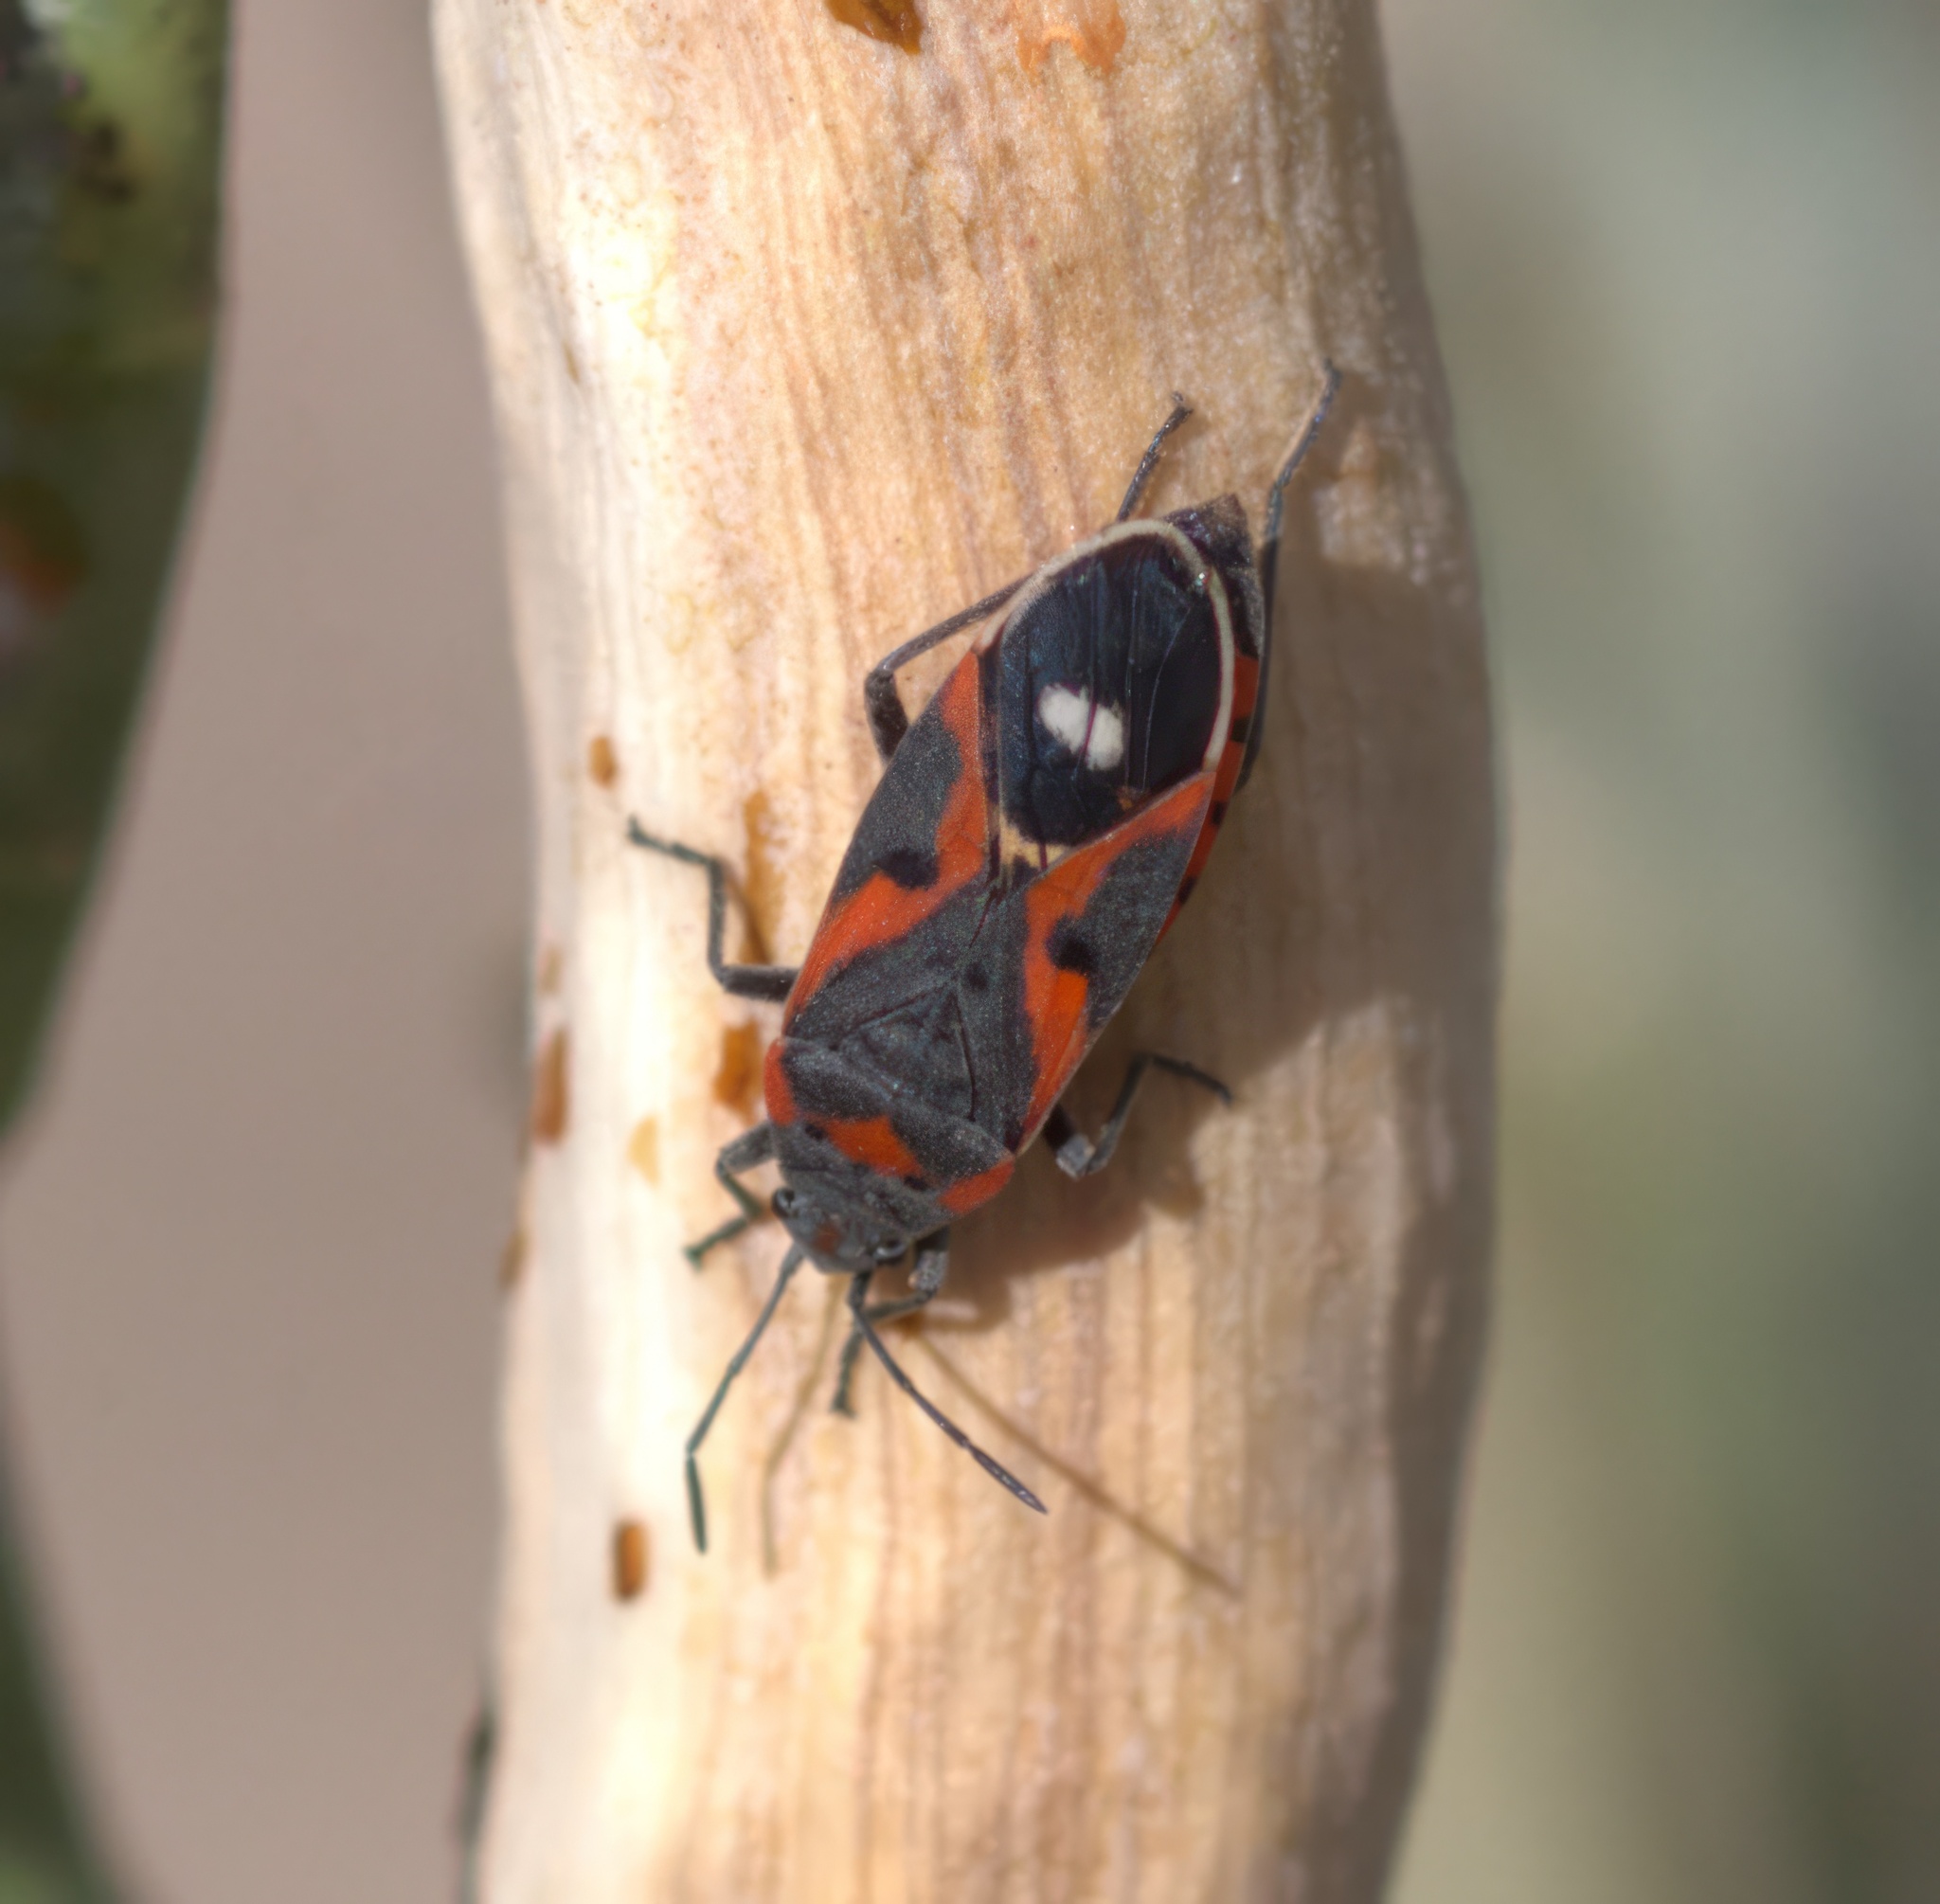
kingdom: Animalia
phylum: Arthropoda
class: Insecta
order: Hemiptera
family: Lygaeidae
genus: Lygaeus
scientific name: Lygaeus kalmii
